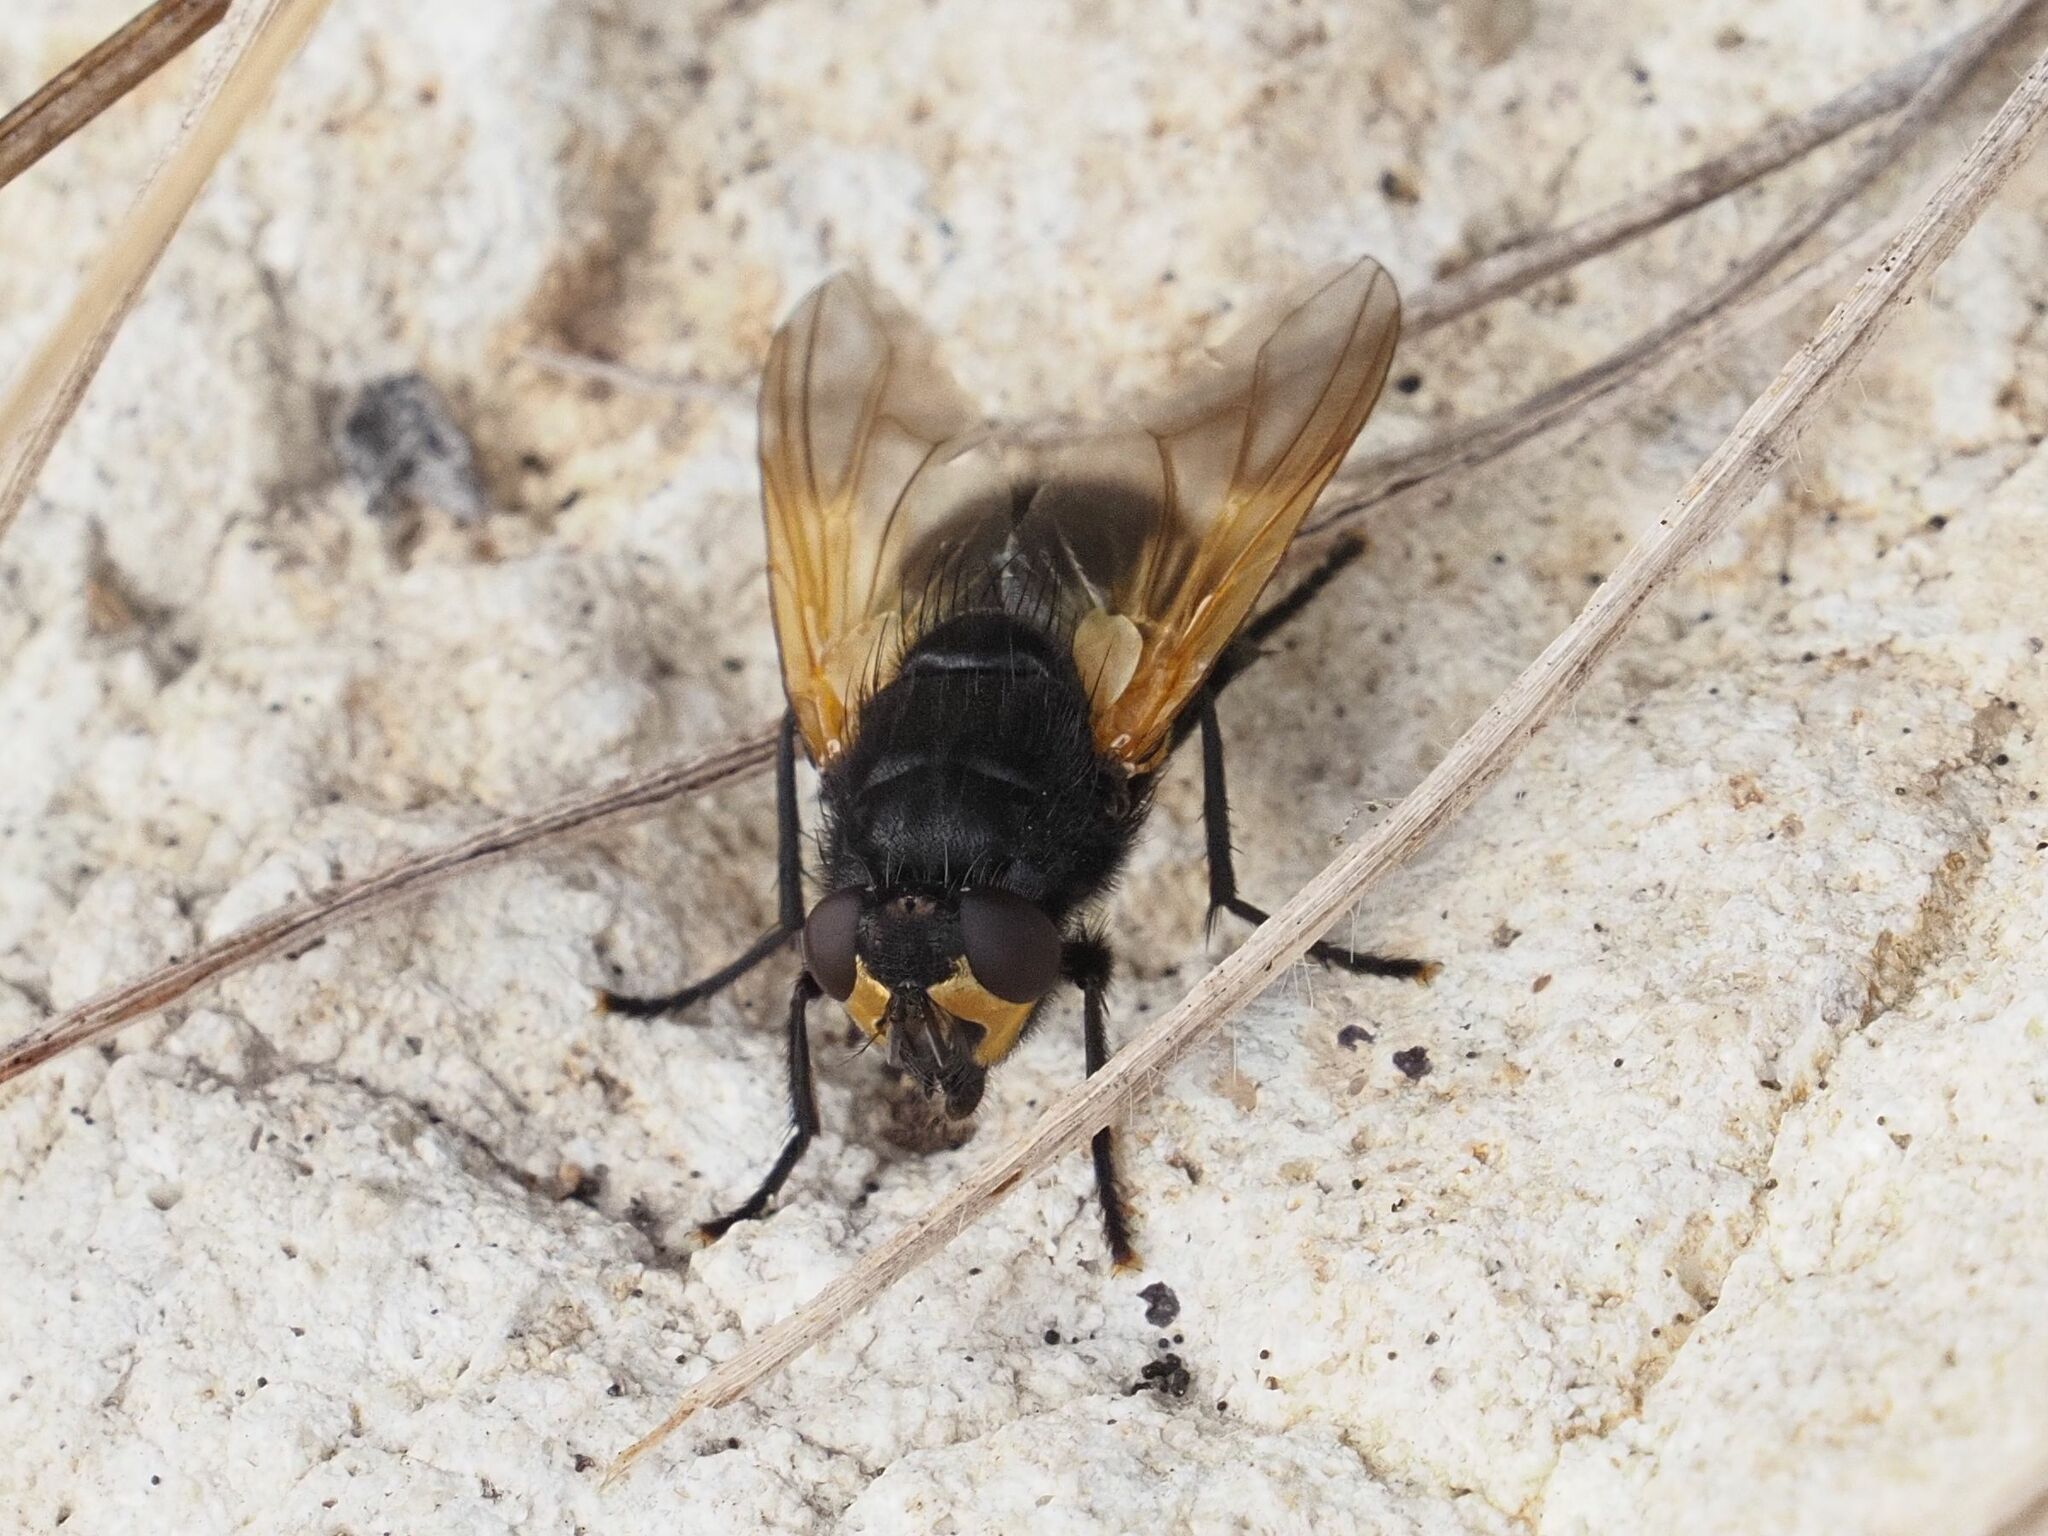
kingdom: Animalia
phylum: Arthropoda
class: Insecta
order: Diptera
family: Muscidae
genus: Mesembrina
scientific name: Mesembrina meridiana
